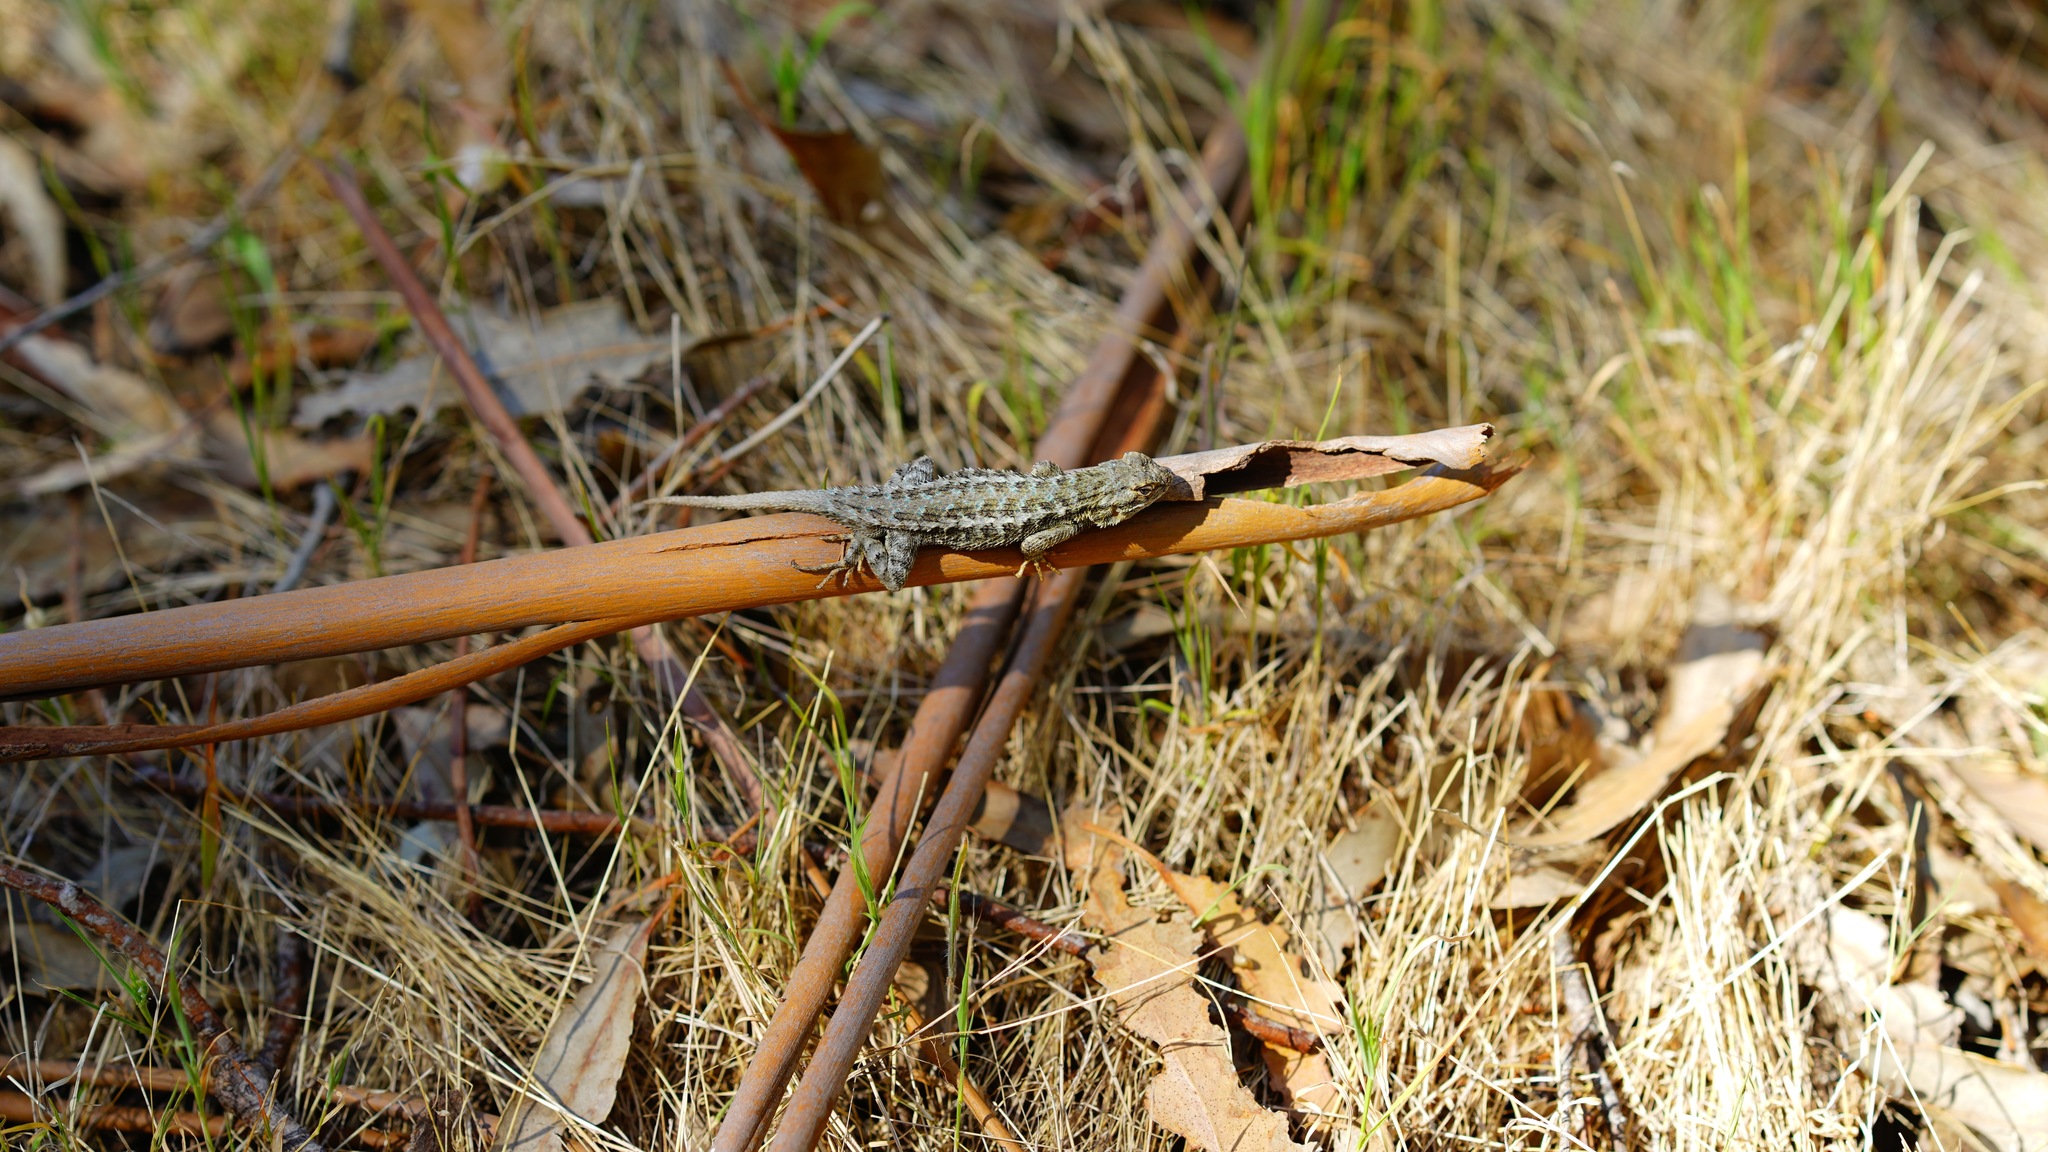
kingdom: Animalia
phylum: Chordata
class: Squamata
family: Phrynosomatidae
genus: Sceloporus
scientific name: Sceloporus occidentalis
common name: Western fence lizard
